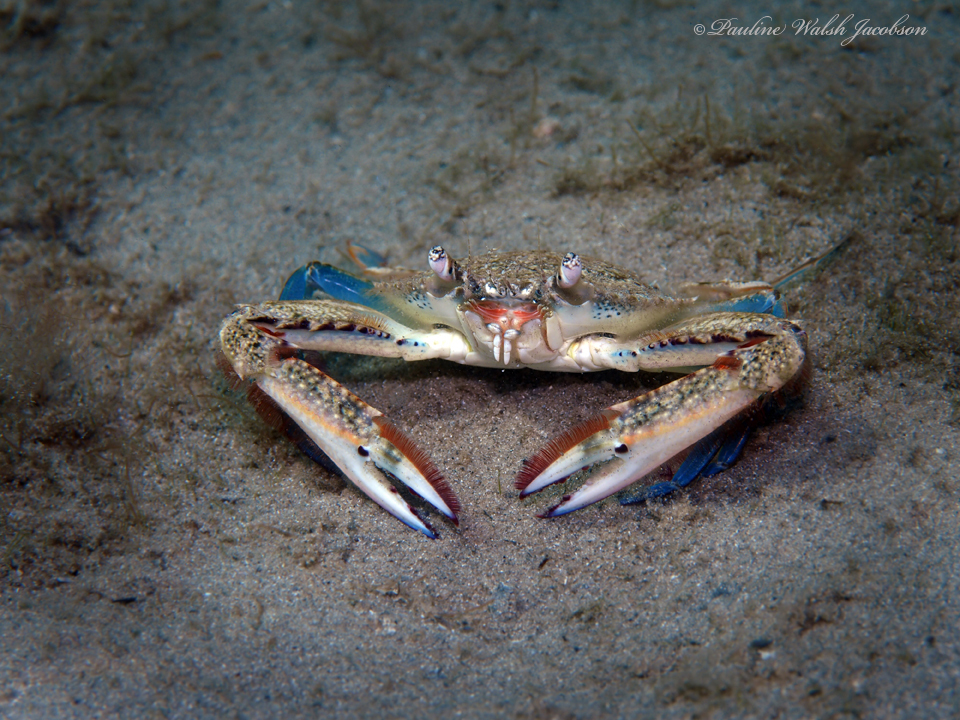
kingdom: Animalia
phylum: Arthropoda
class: Malacostraca
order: Decapoda
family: Portunidae
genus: Achelous
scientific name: Achelous depressifrons
